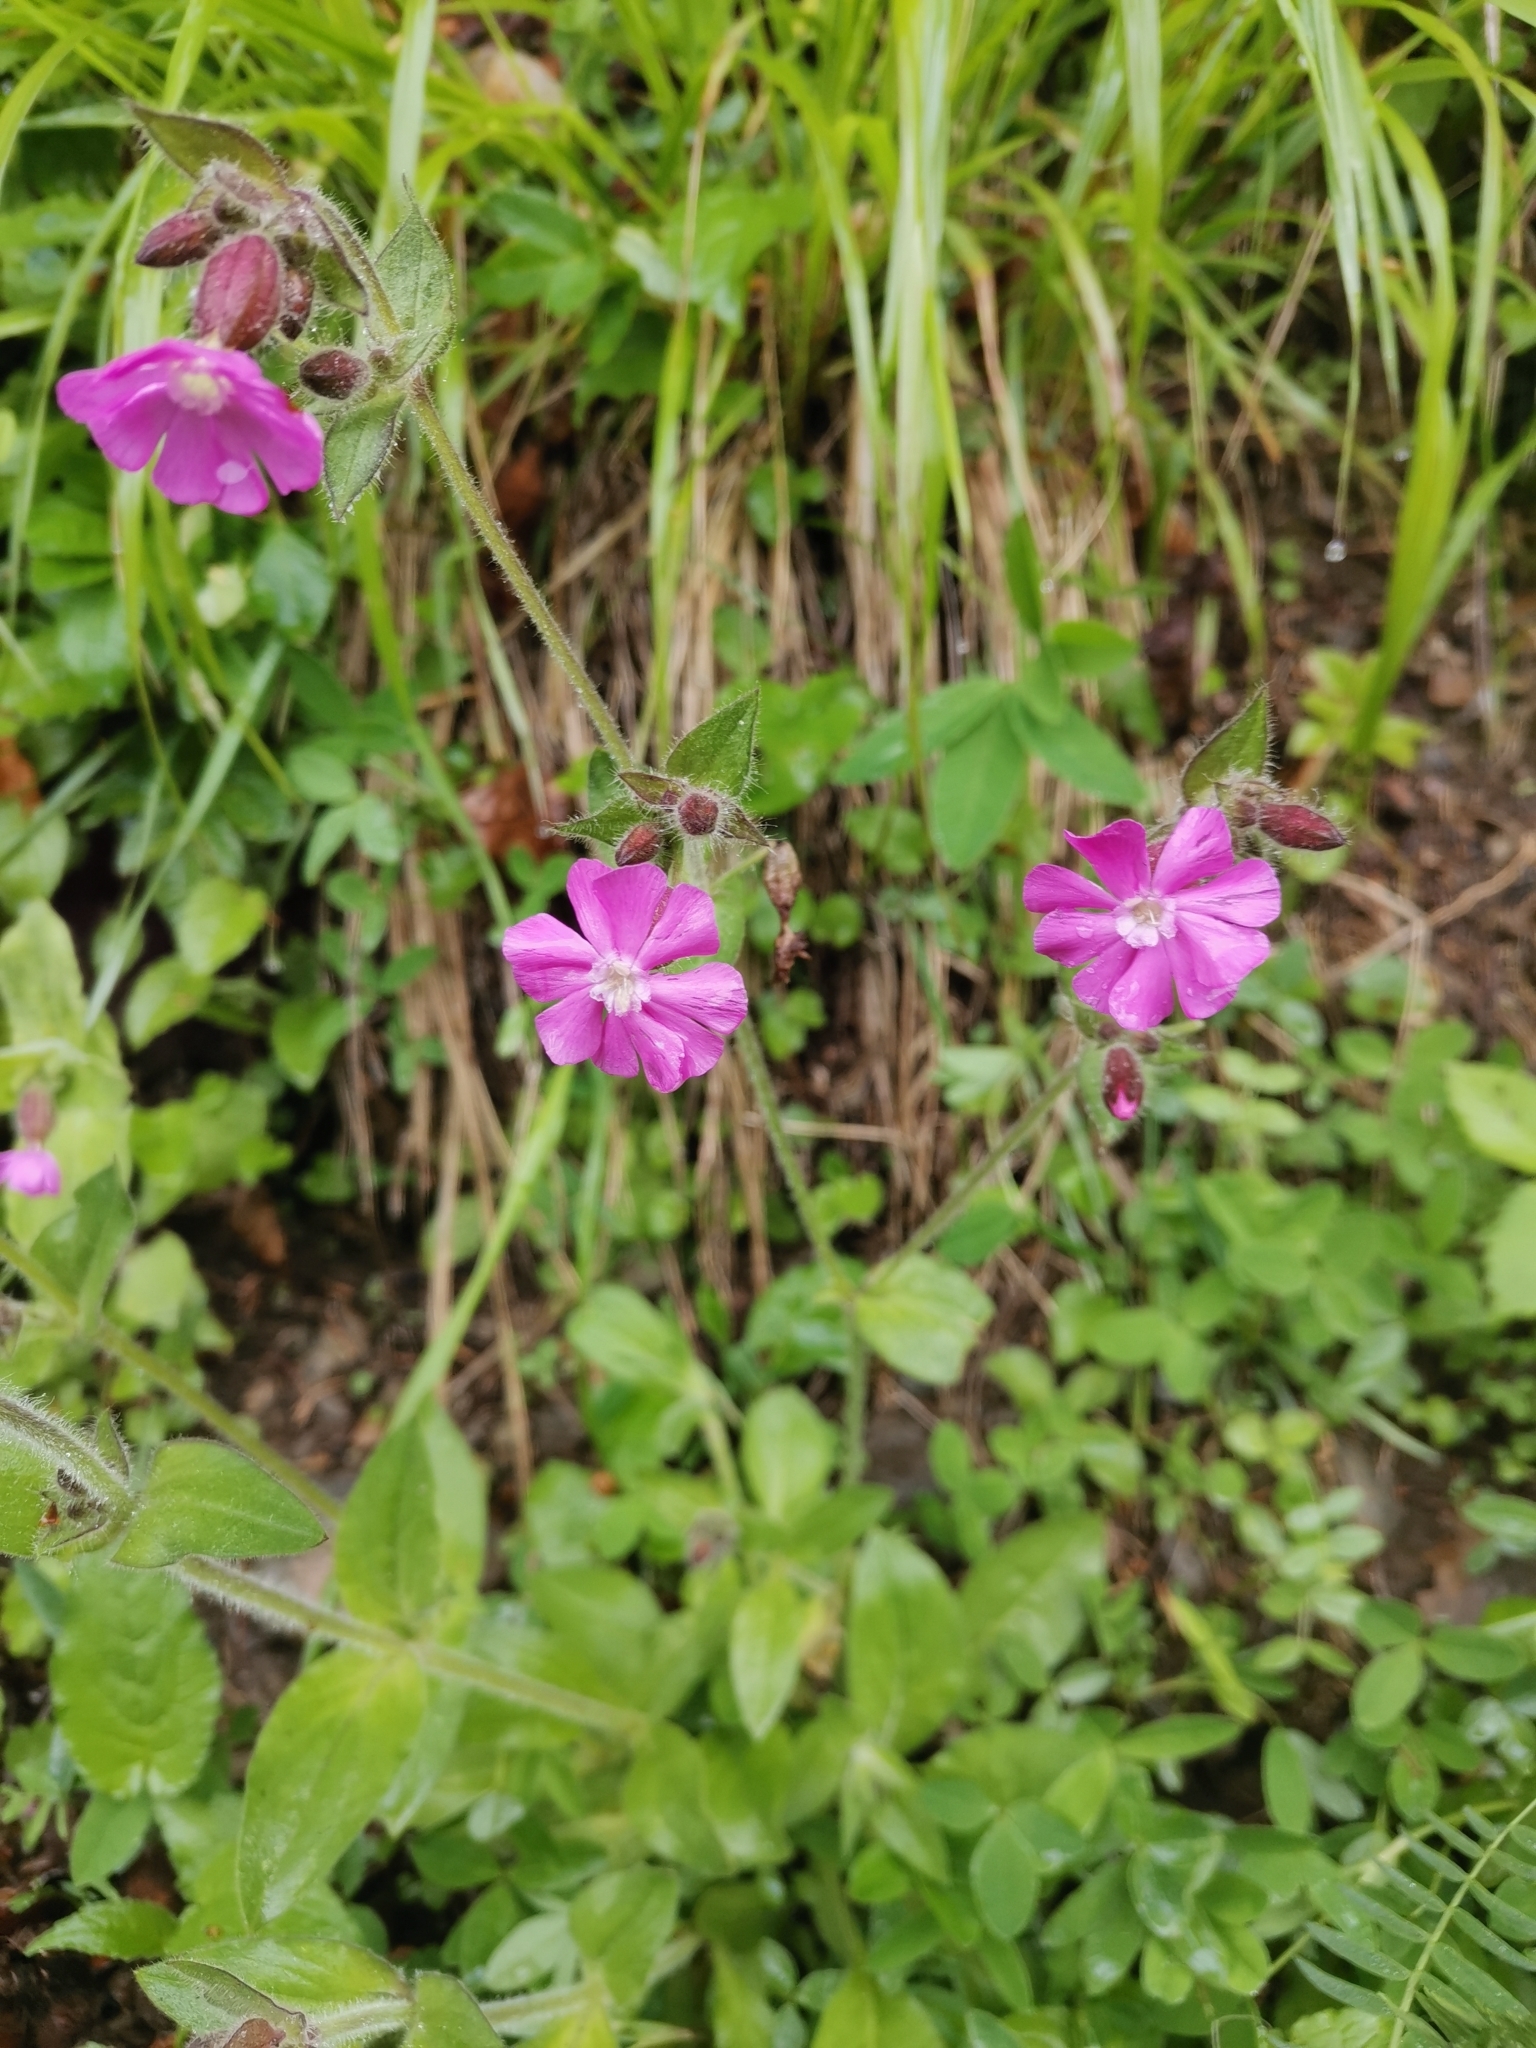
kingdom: Plantae
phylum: Tracheophyta
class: Magnoliopsida
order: Caryophyllales
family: Caryophyllaceae
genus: Silene
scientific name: Silene dioica
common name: Red campion
